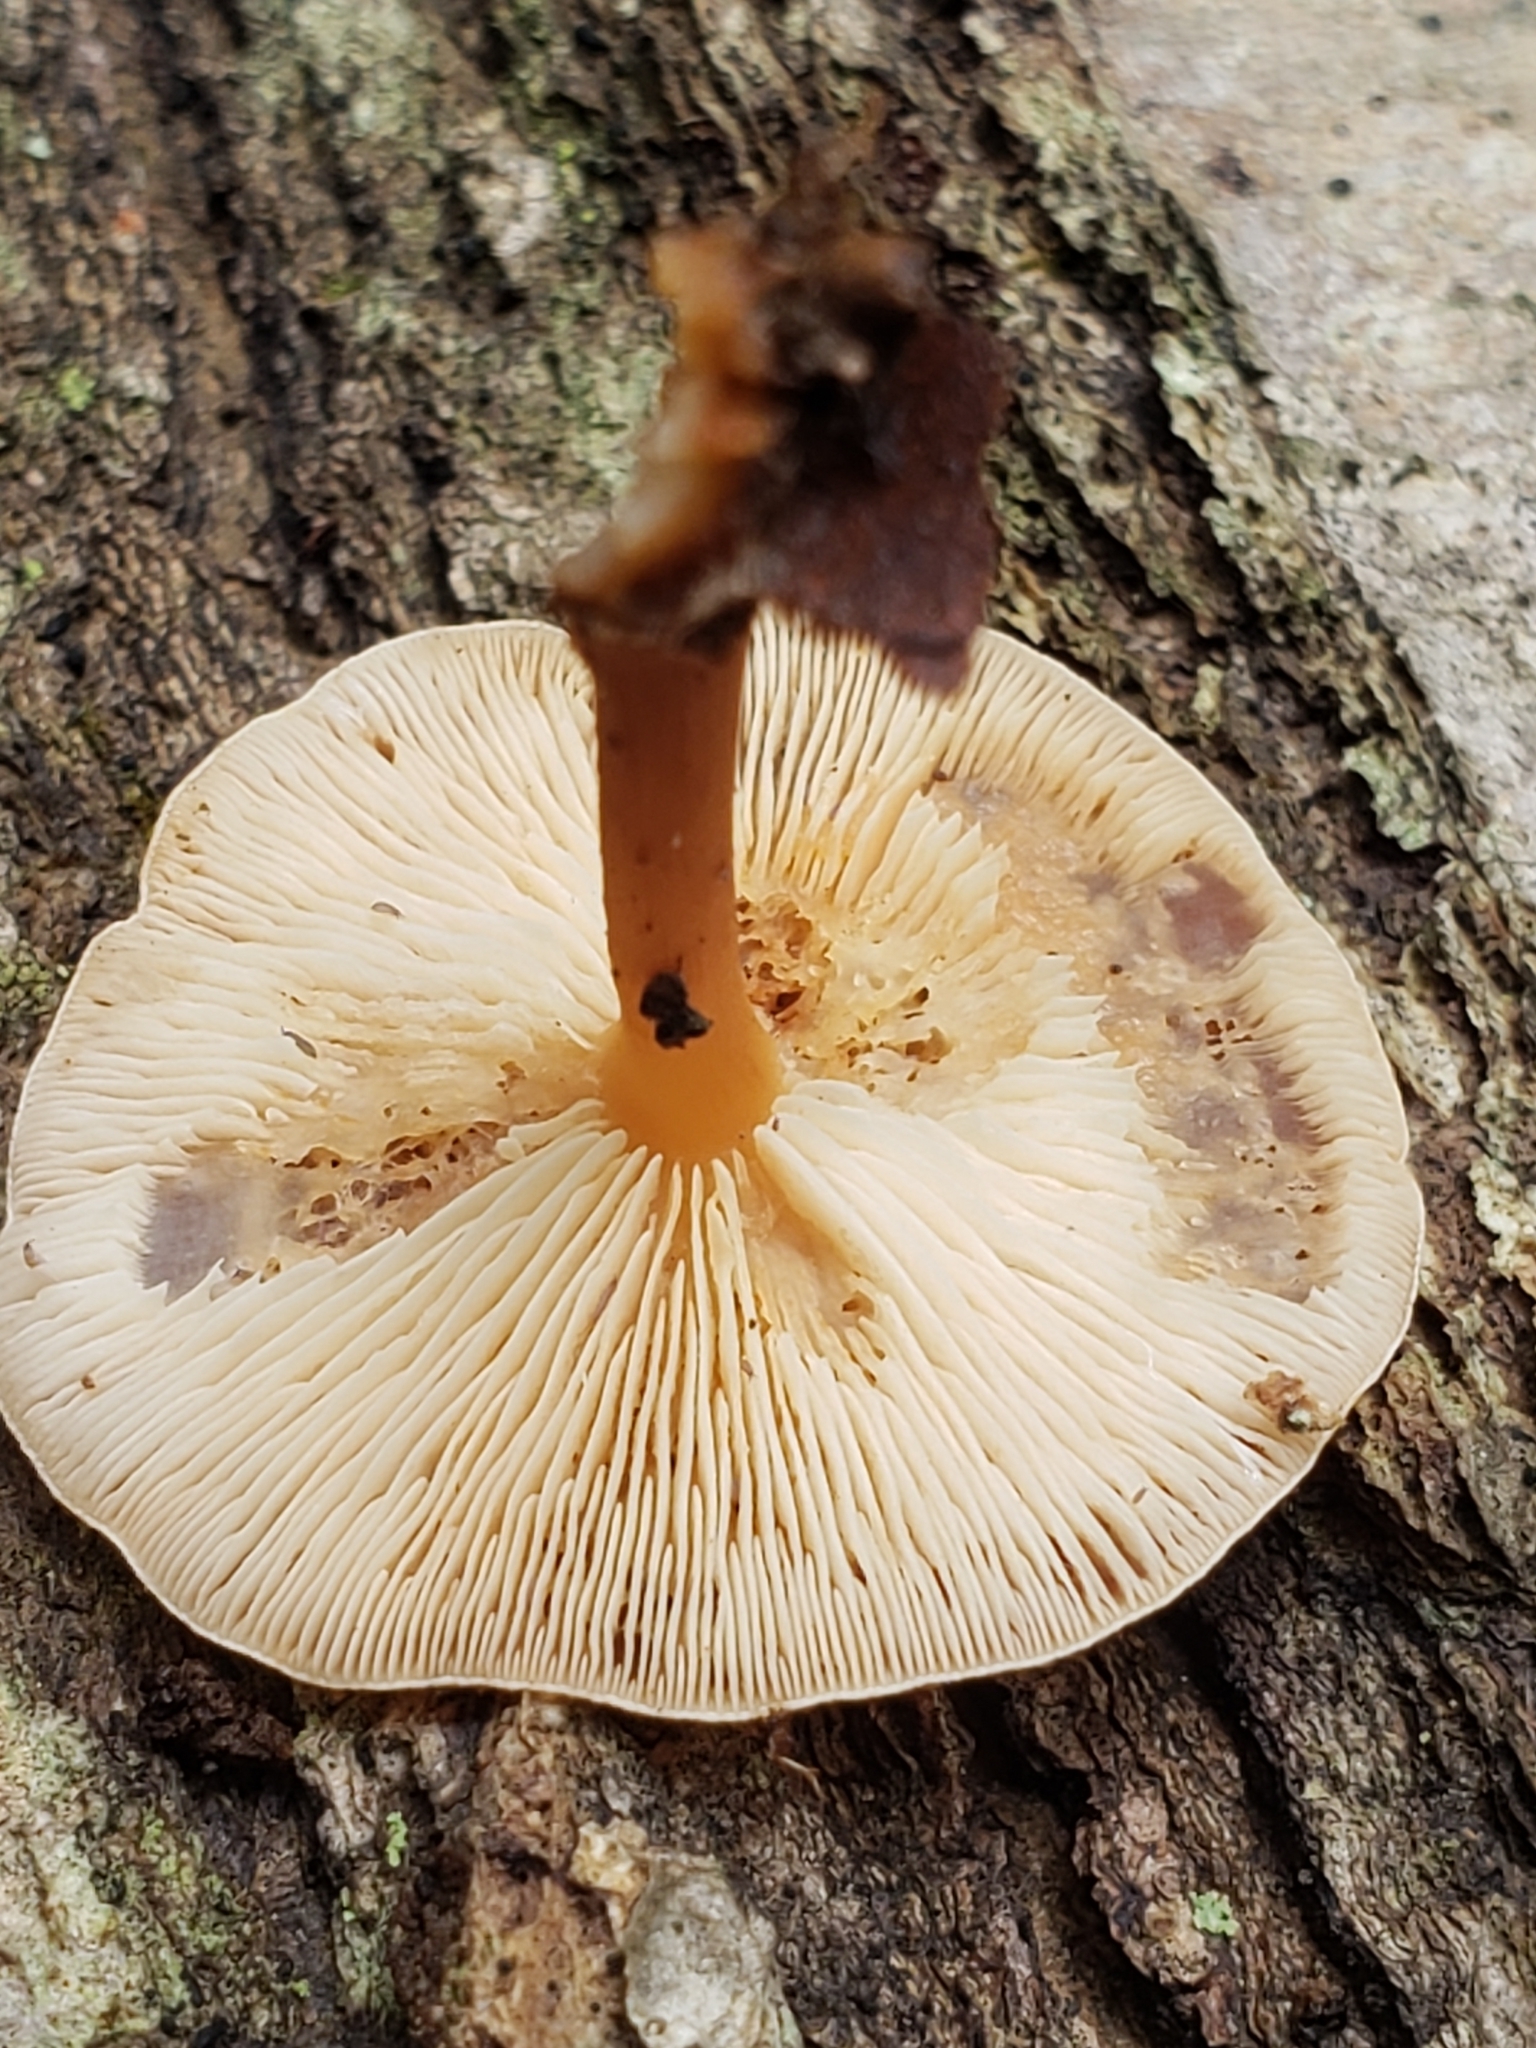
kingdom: Fungi
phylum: Basidiomycota
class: Agaricomycetes
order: Agaricales
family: Omphalotaceae
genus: Gymnopus
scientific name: Gymnopus dryophilus
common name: Penny top
